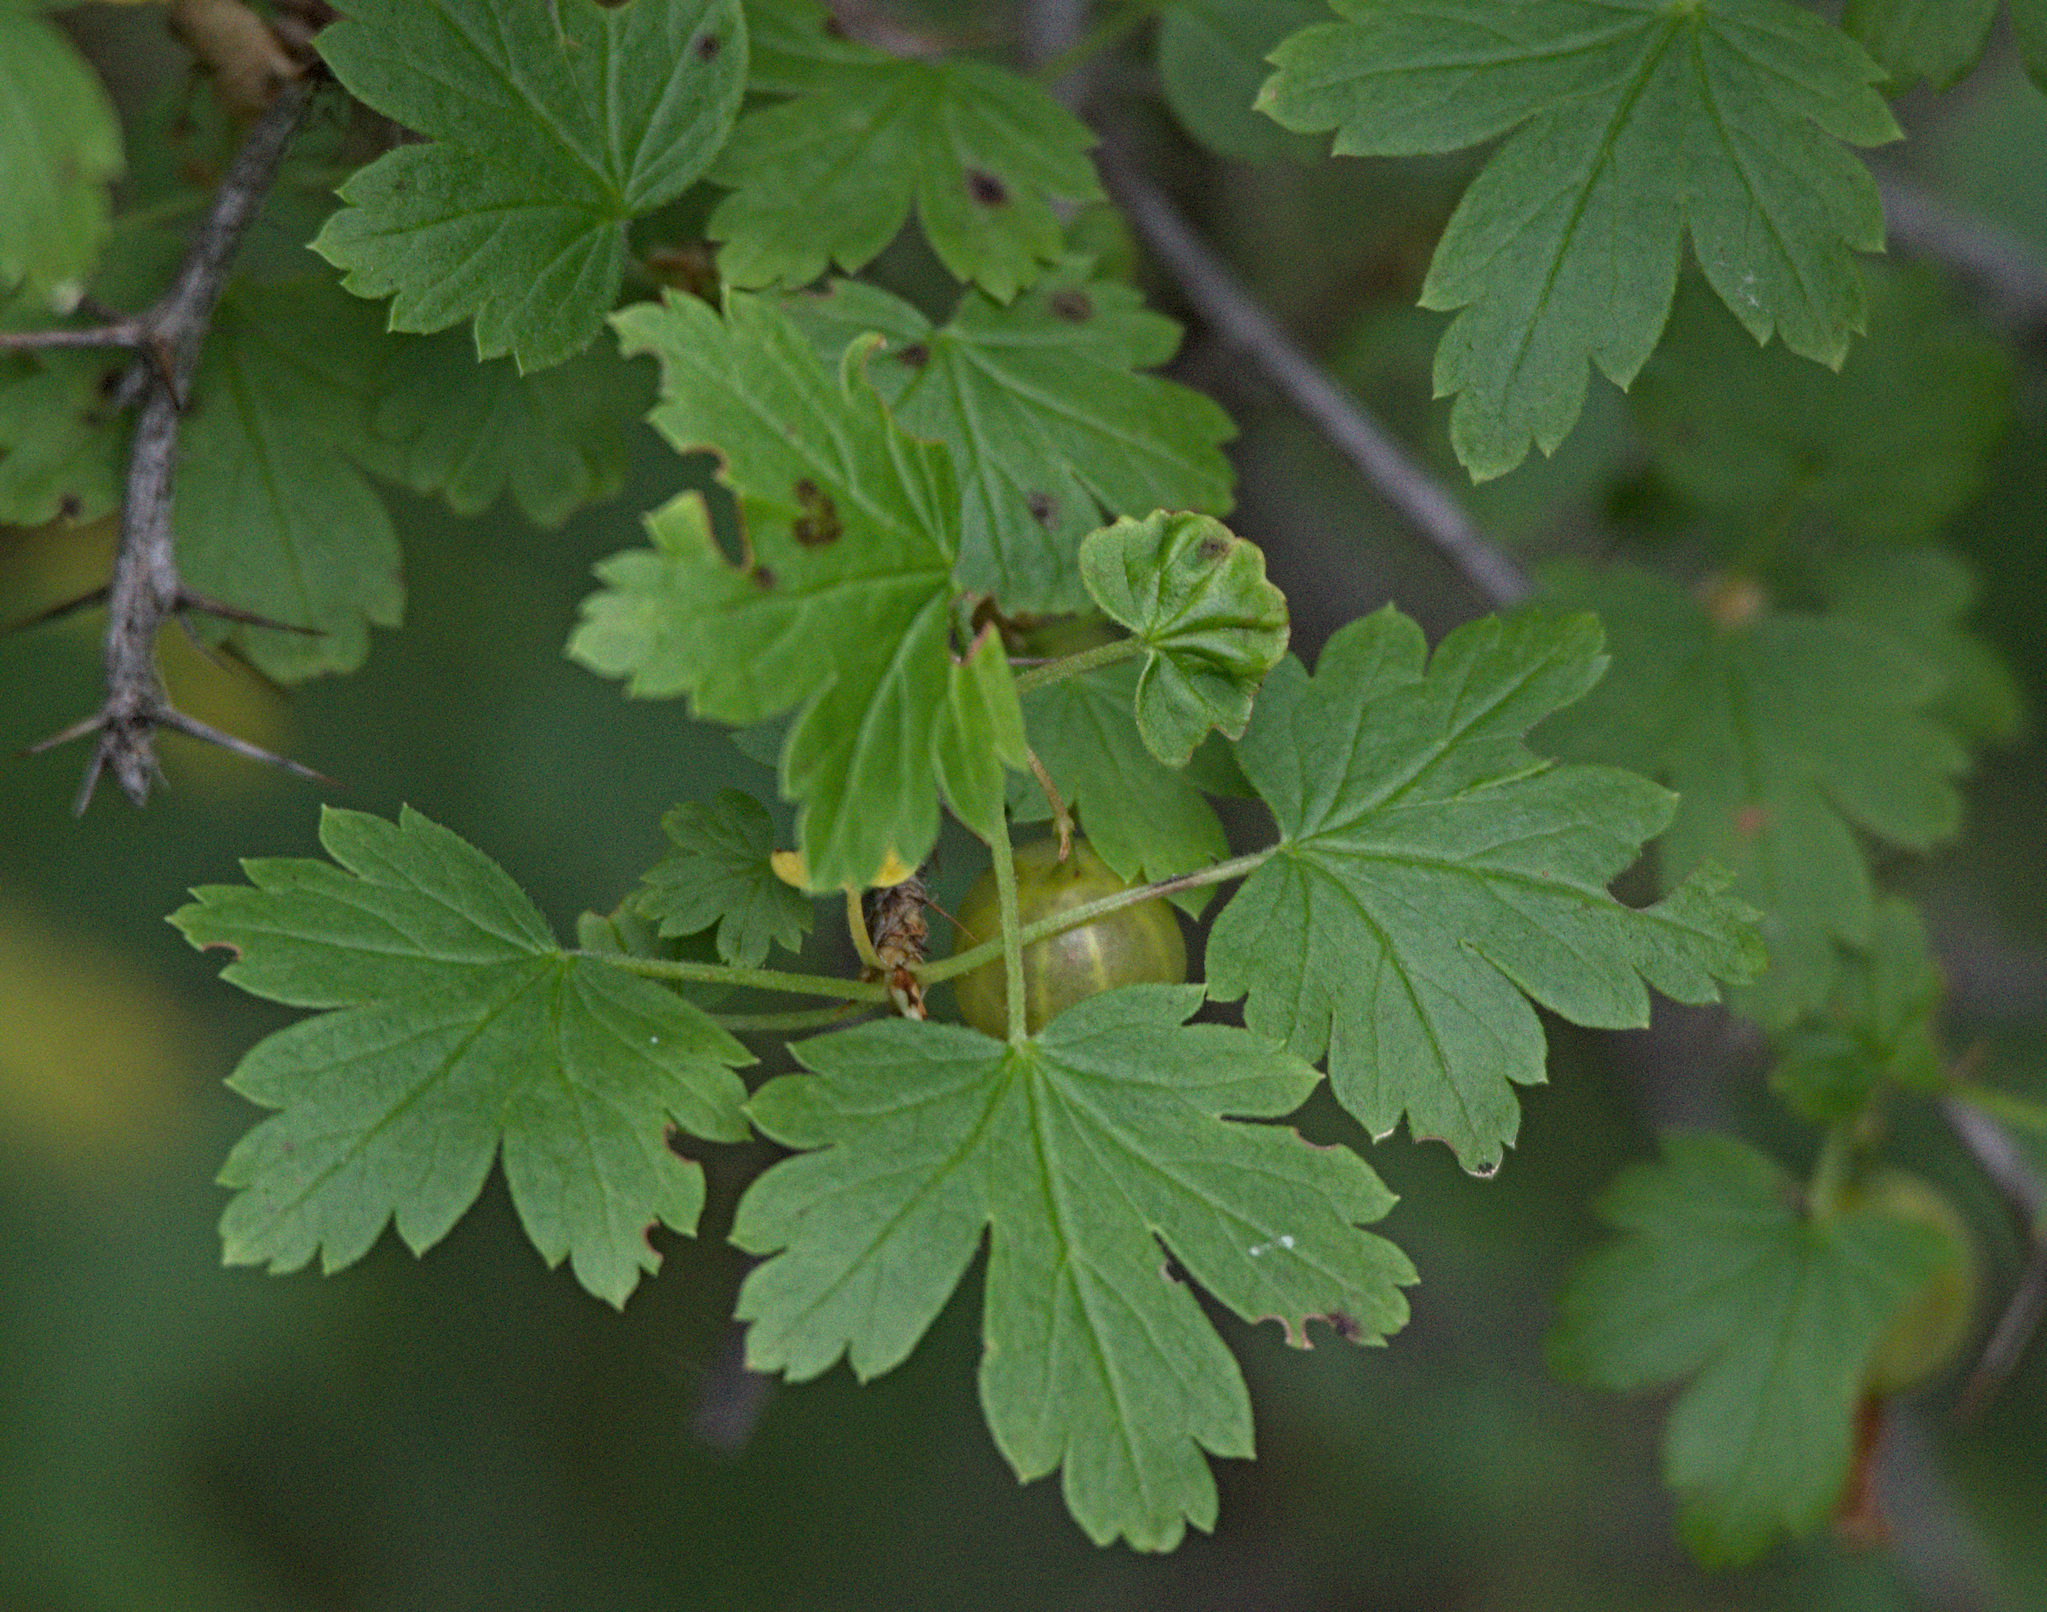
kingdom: Plantae
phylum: Tracheophyta
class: Magnoliopsida
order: Saxifragales
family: Grossulariaceae
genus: Ribes
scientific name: Ribes aciculare
